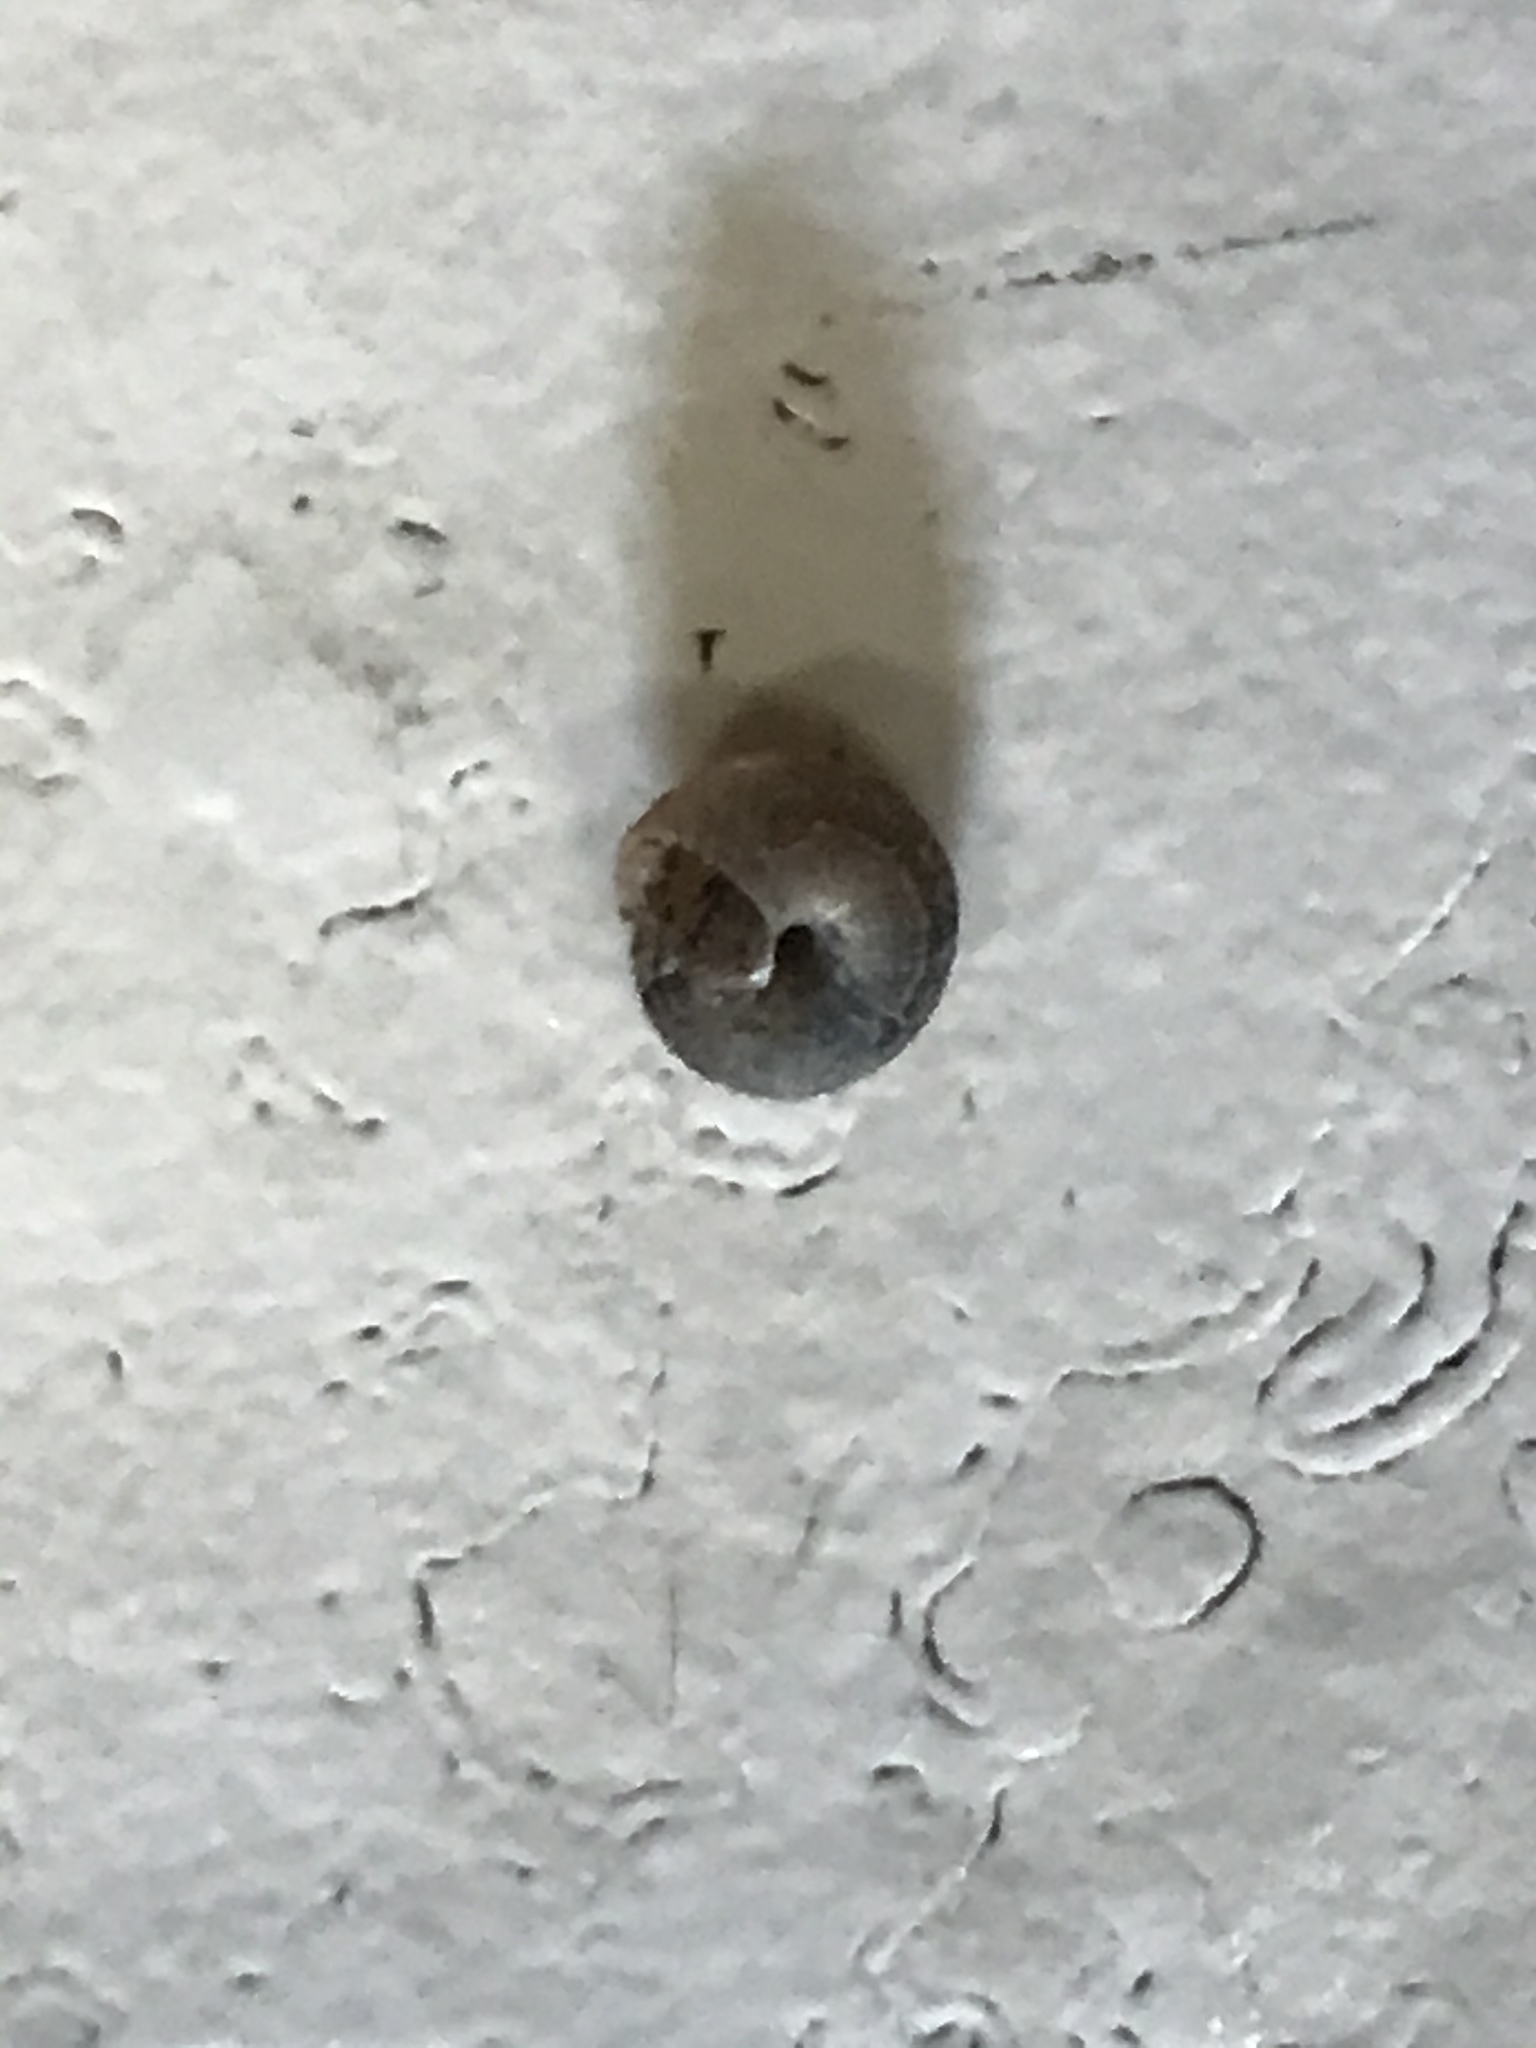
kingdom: Animalia
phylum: Mollusca
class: Gastropoda
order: Stylommatophora
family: Geomitridae
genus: Xerotricha
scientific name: Xerotricha conspurcata
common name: Snail
